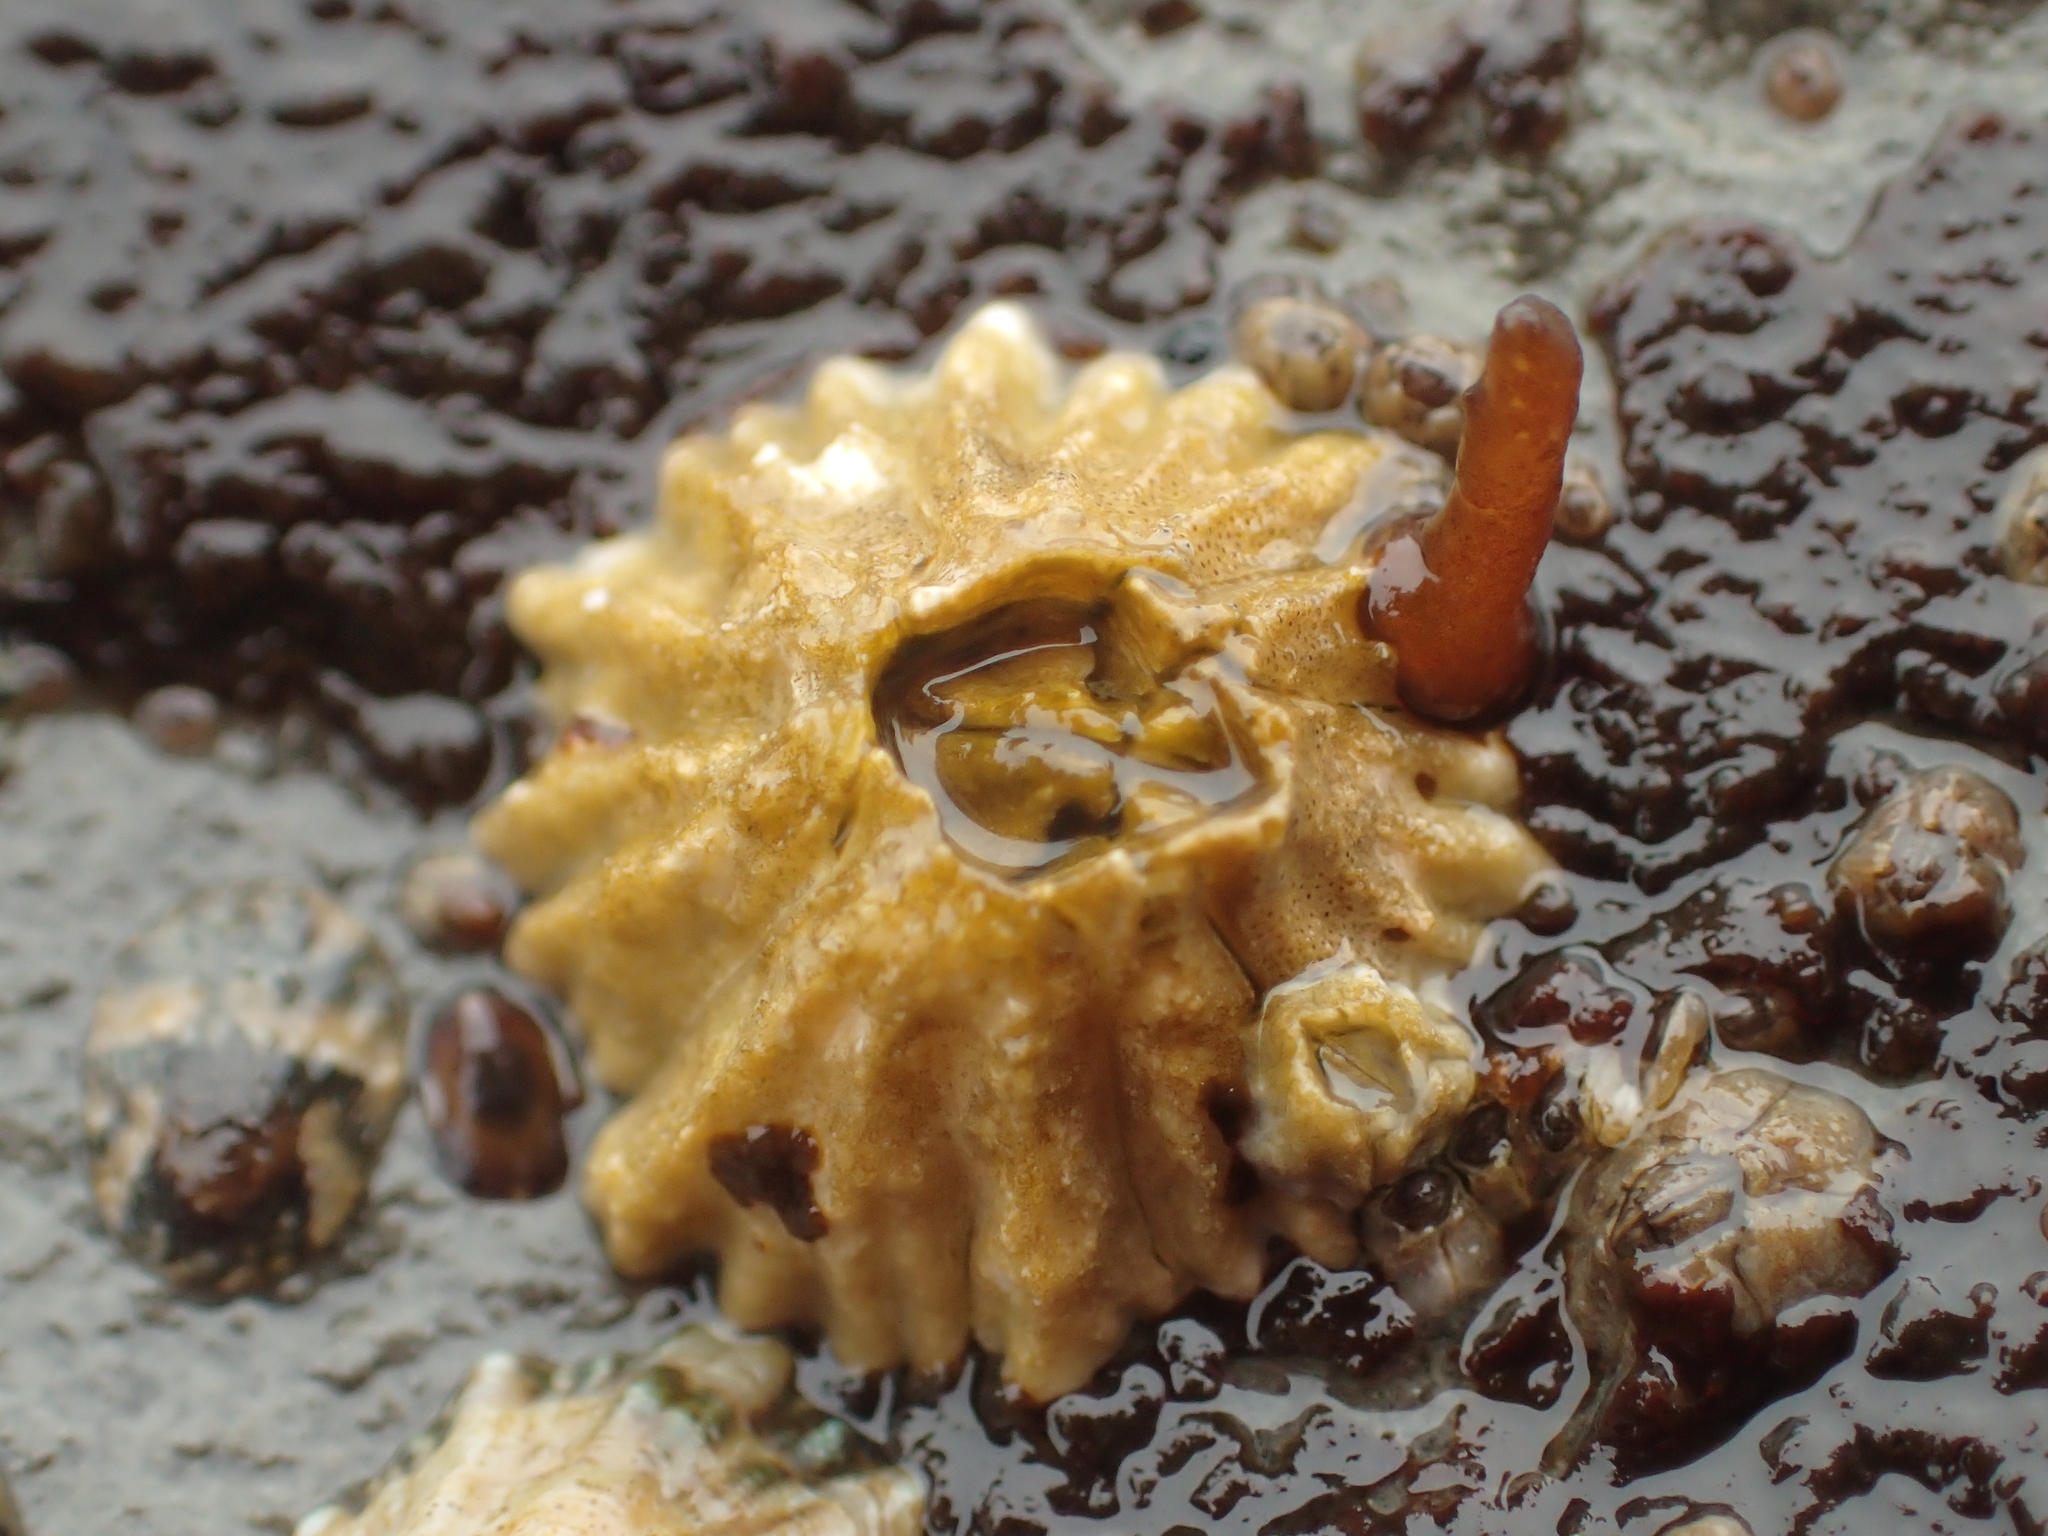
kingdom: Animalia
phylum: Arthropoda
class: Maxillopoda
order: Sessilia
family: Balanidae
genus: Balanus
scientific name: Balanus glandula
